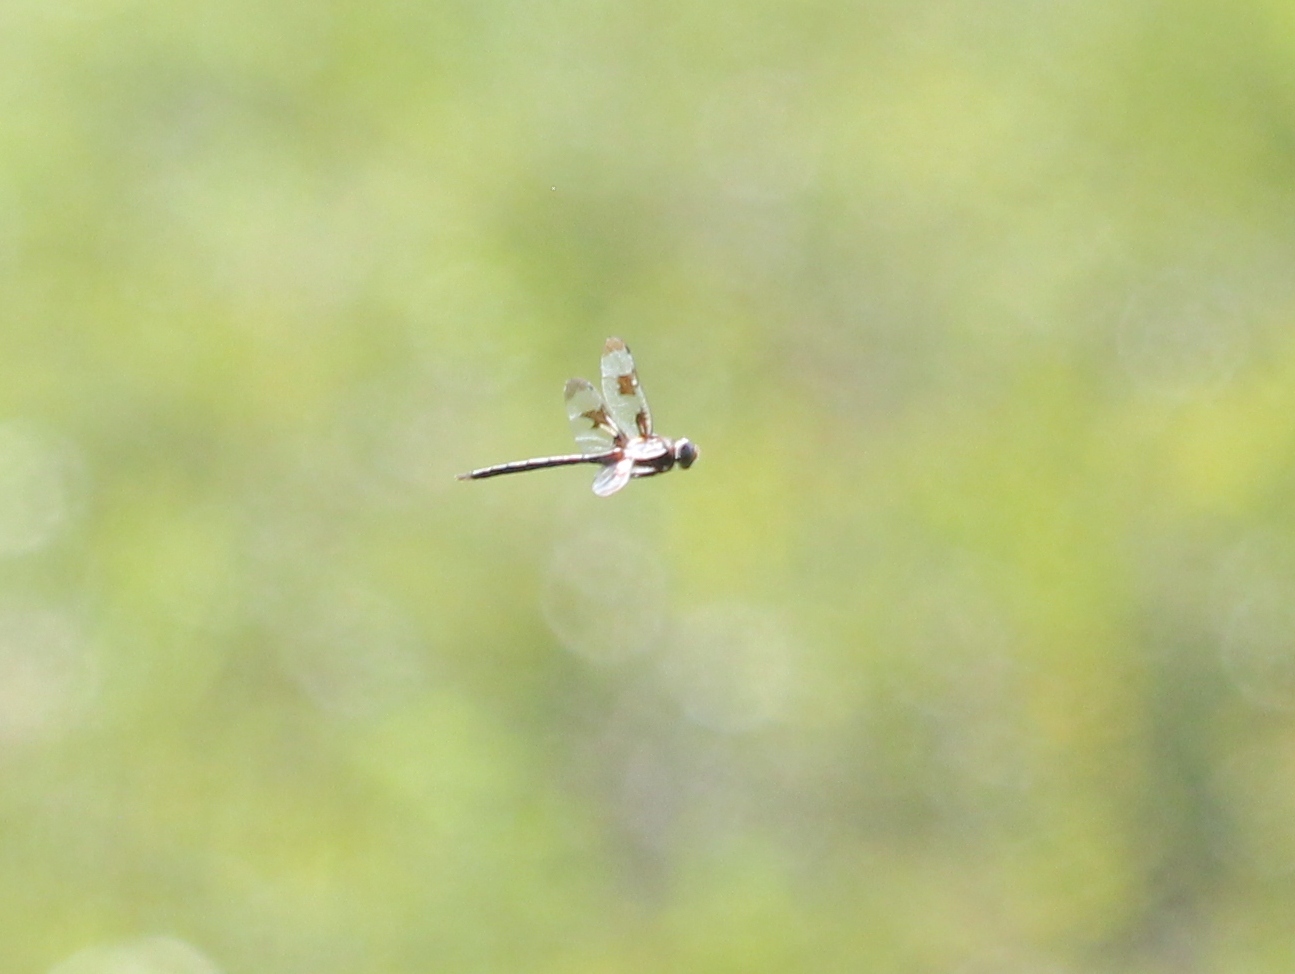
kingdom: Animalia
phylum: Arthropoda
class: Insecta
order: Odonata
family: Corduliidae
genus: Epitheca
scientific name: Epitheca princeps
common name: Prince baskettail
